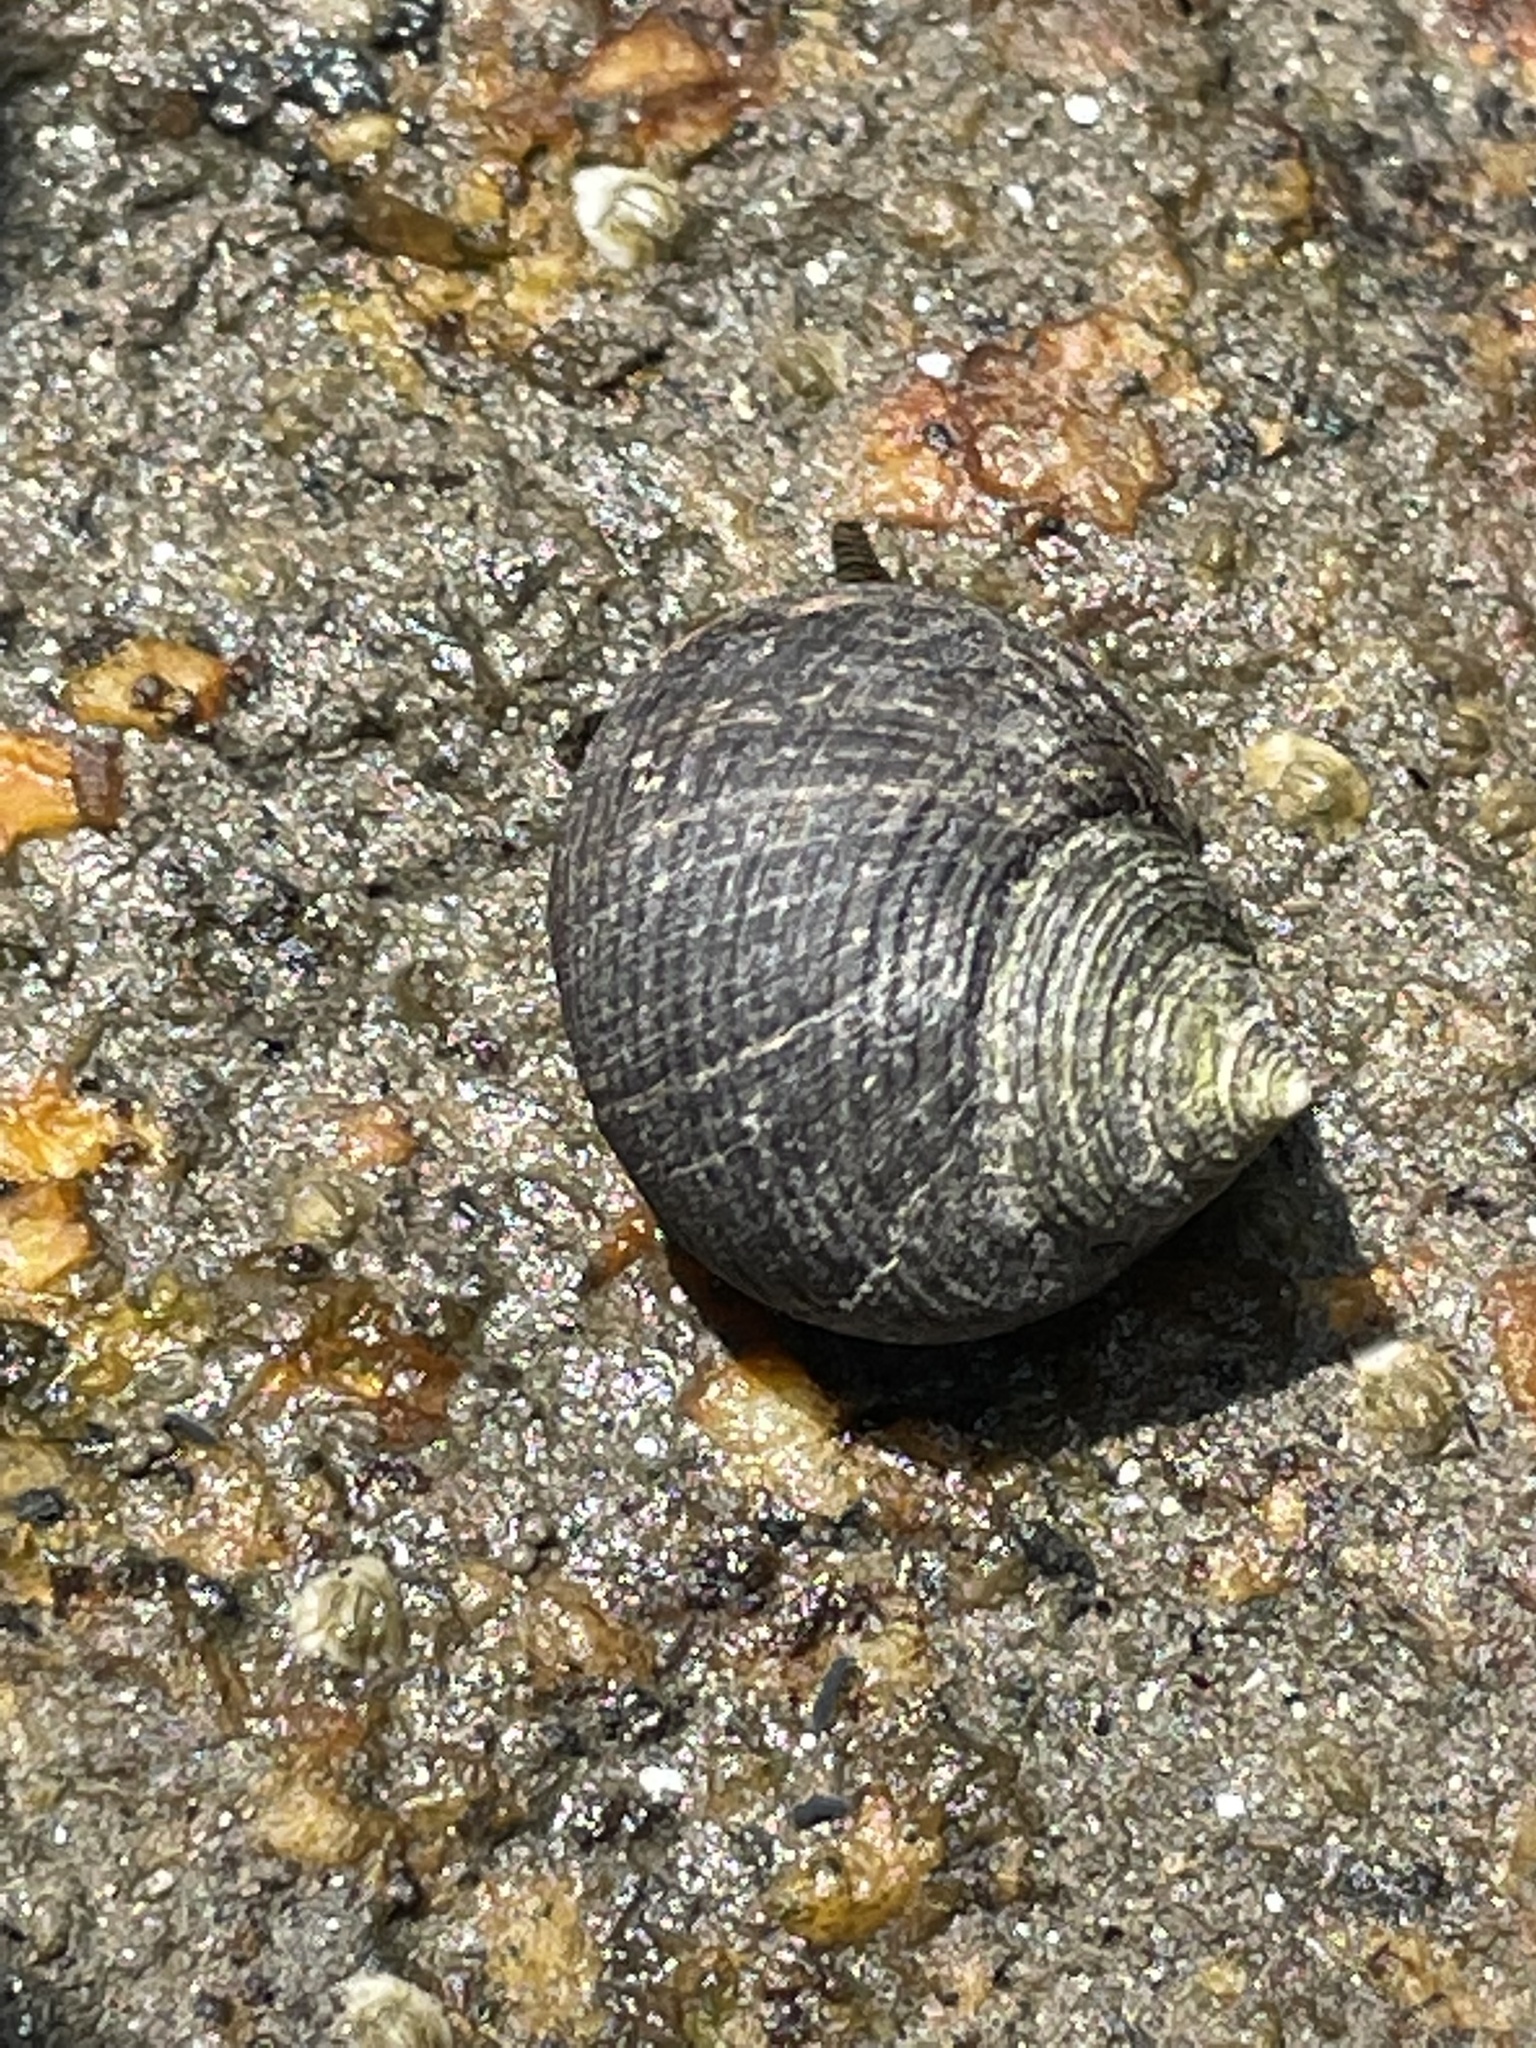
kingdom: Animalia
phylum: Mollusca
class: Gastropoda
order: Littorinimorpha
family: Littorinidae
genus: Littorina
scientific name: Littorina littorea
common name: Common periwinkle
